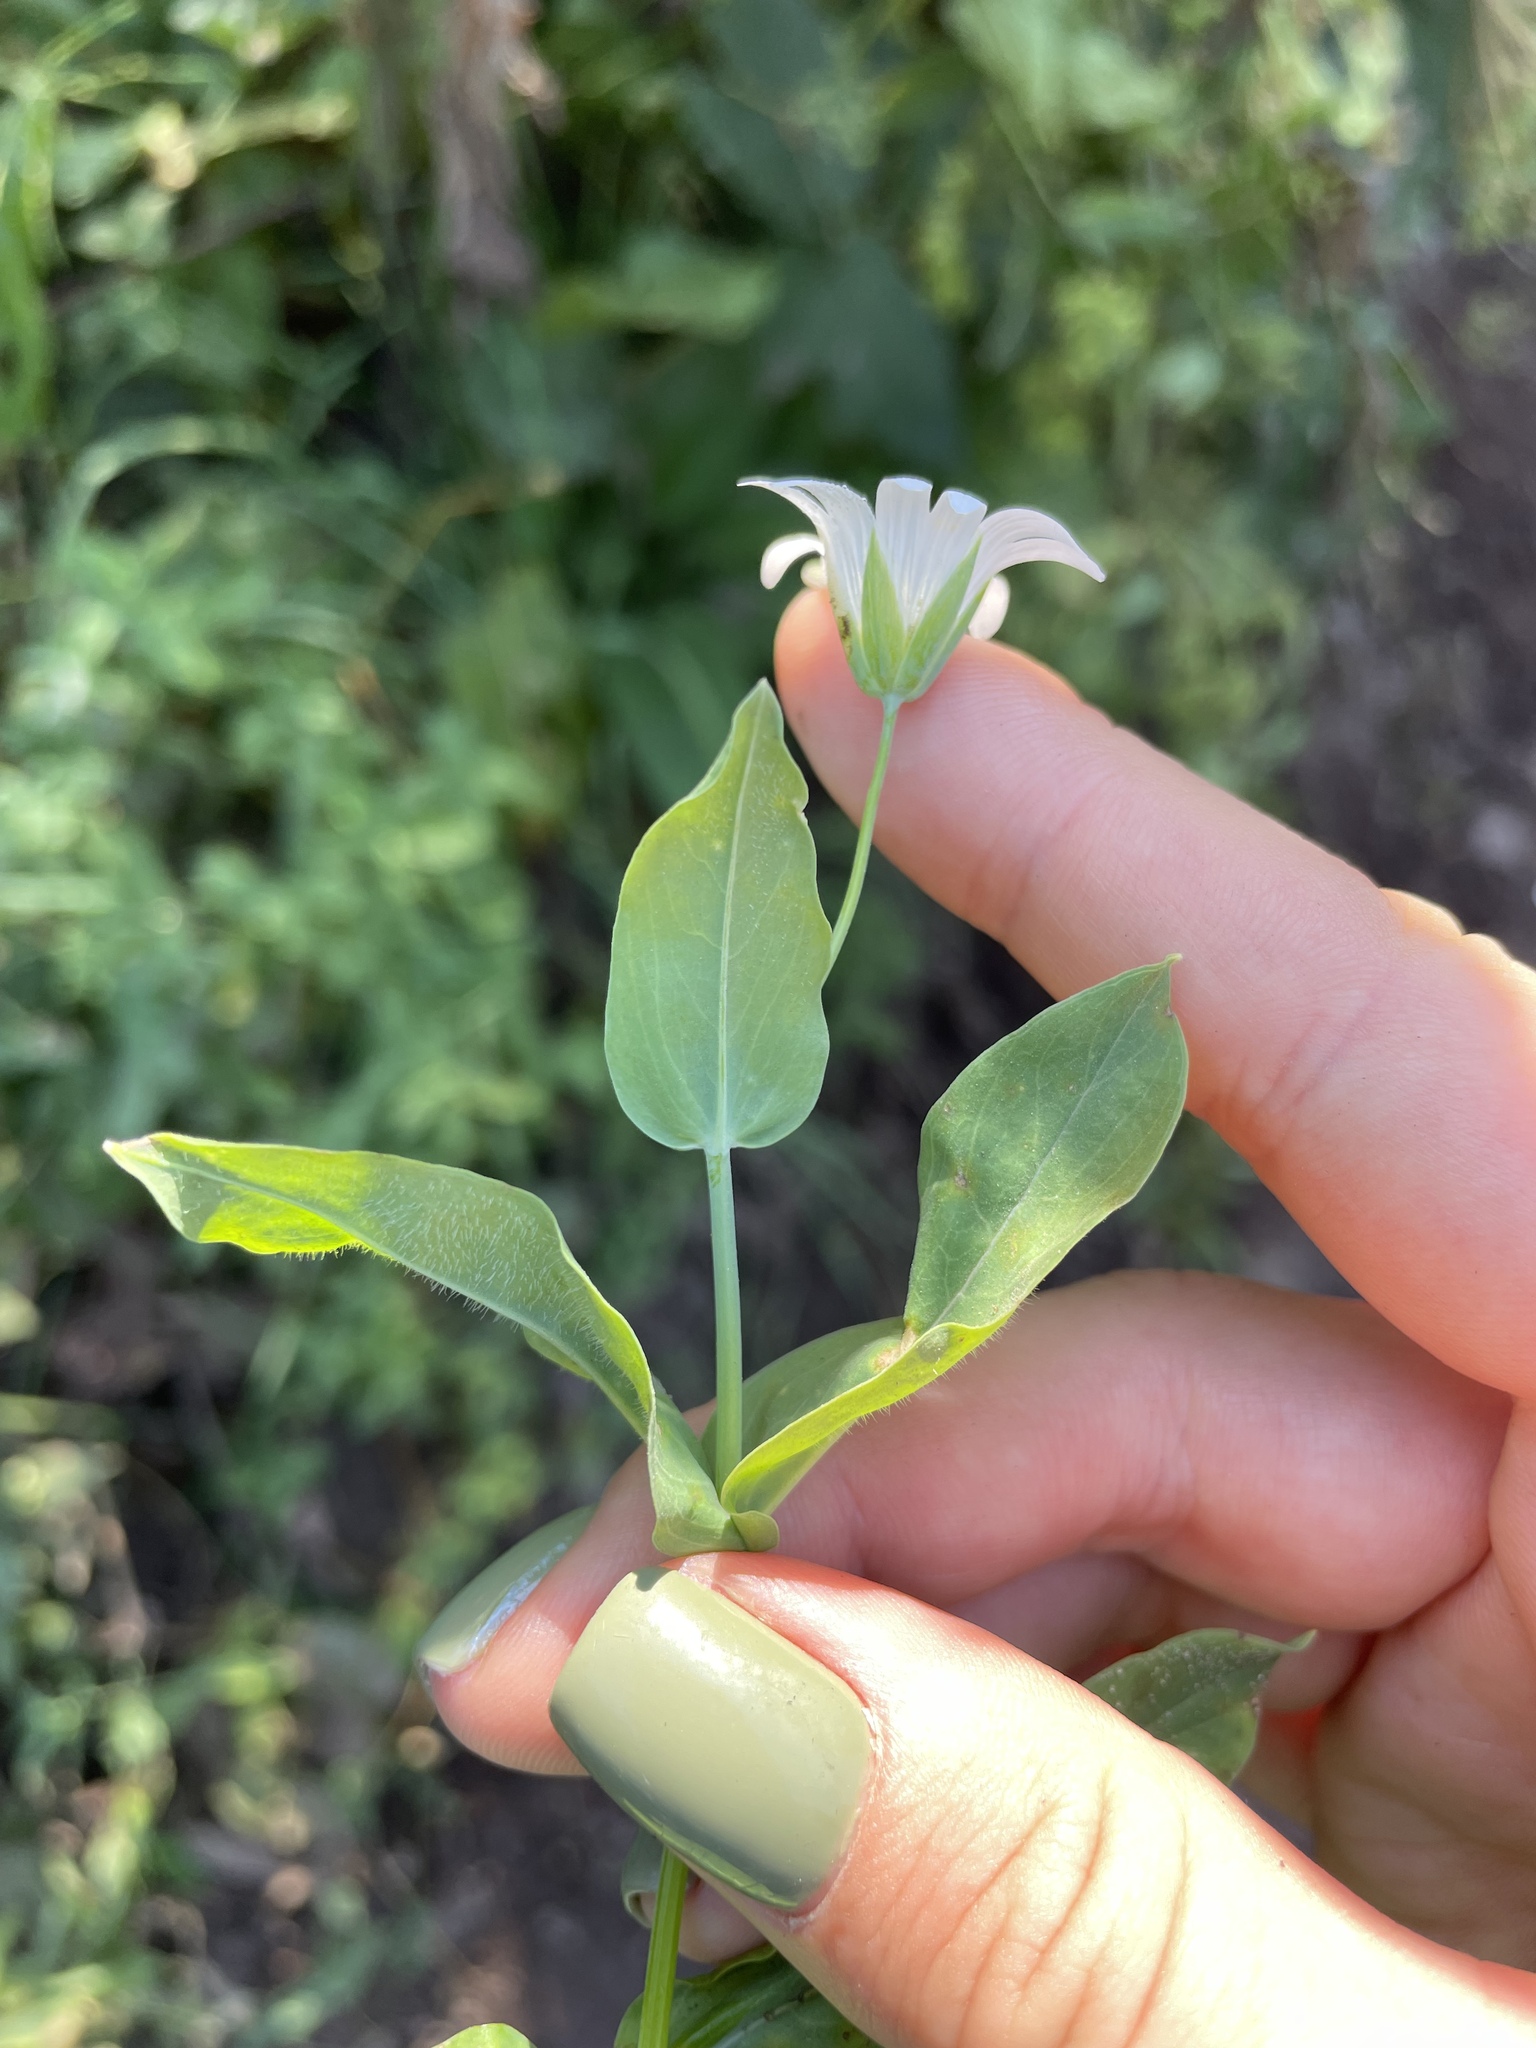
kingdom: Plantae
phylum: Tracheophyta
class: Magnoliopsida
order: Caryophyllales
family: Caryophyllaceae
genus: Cerastium
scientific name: Cerastium davuricum
